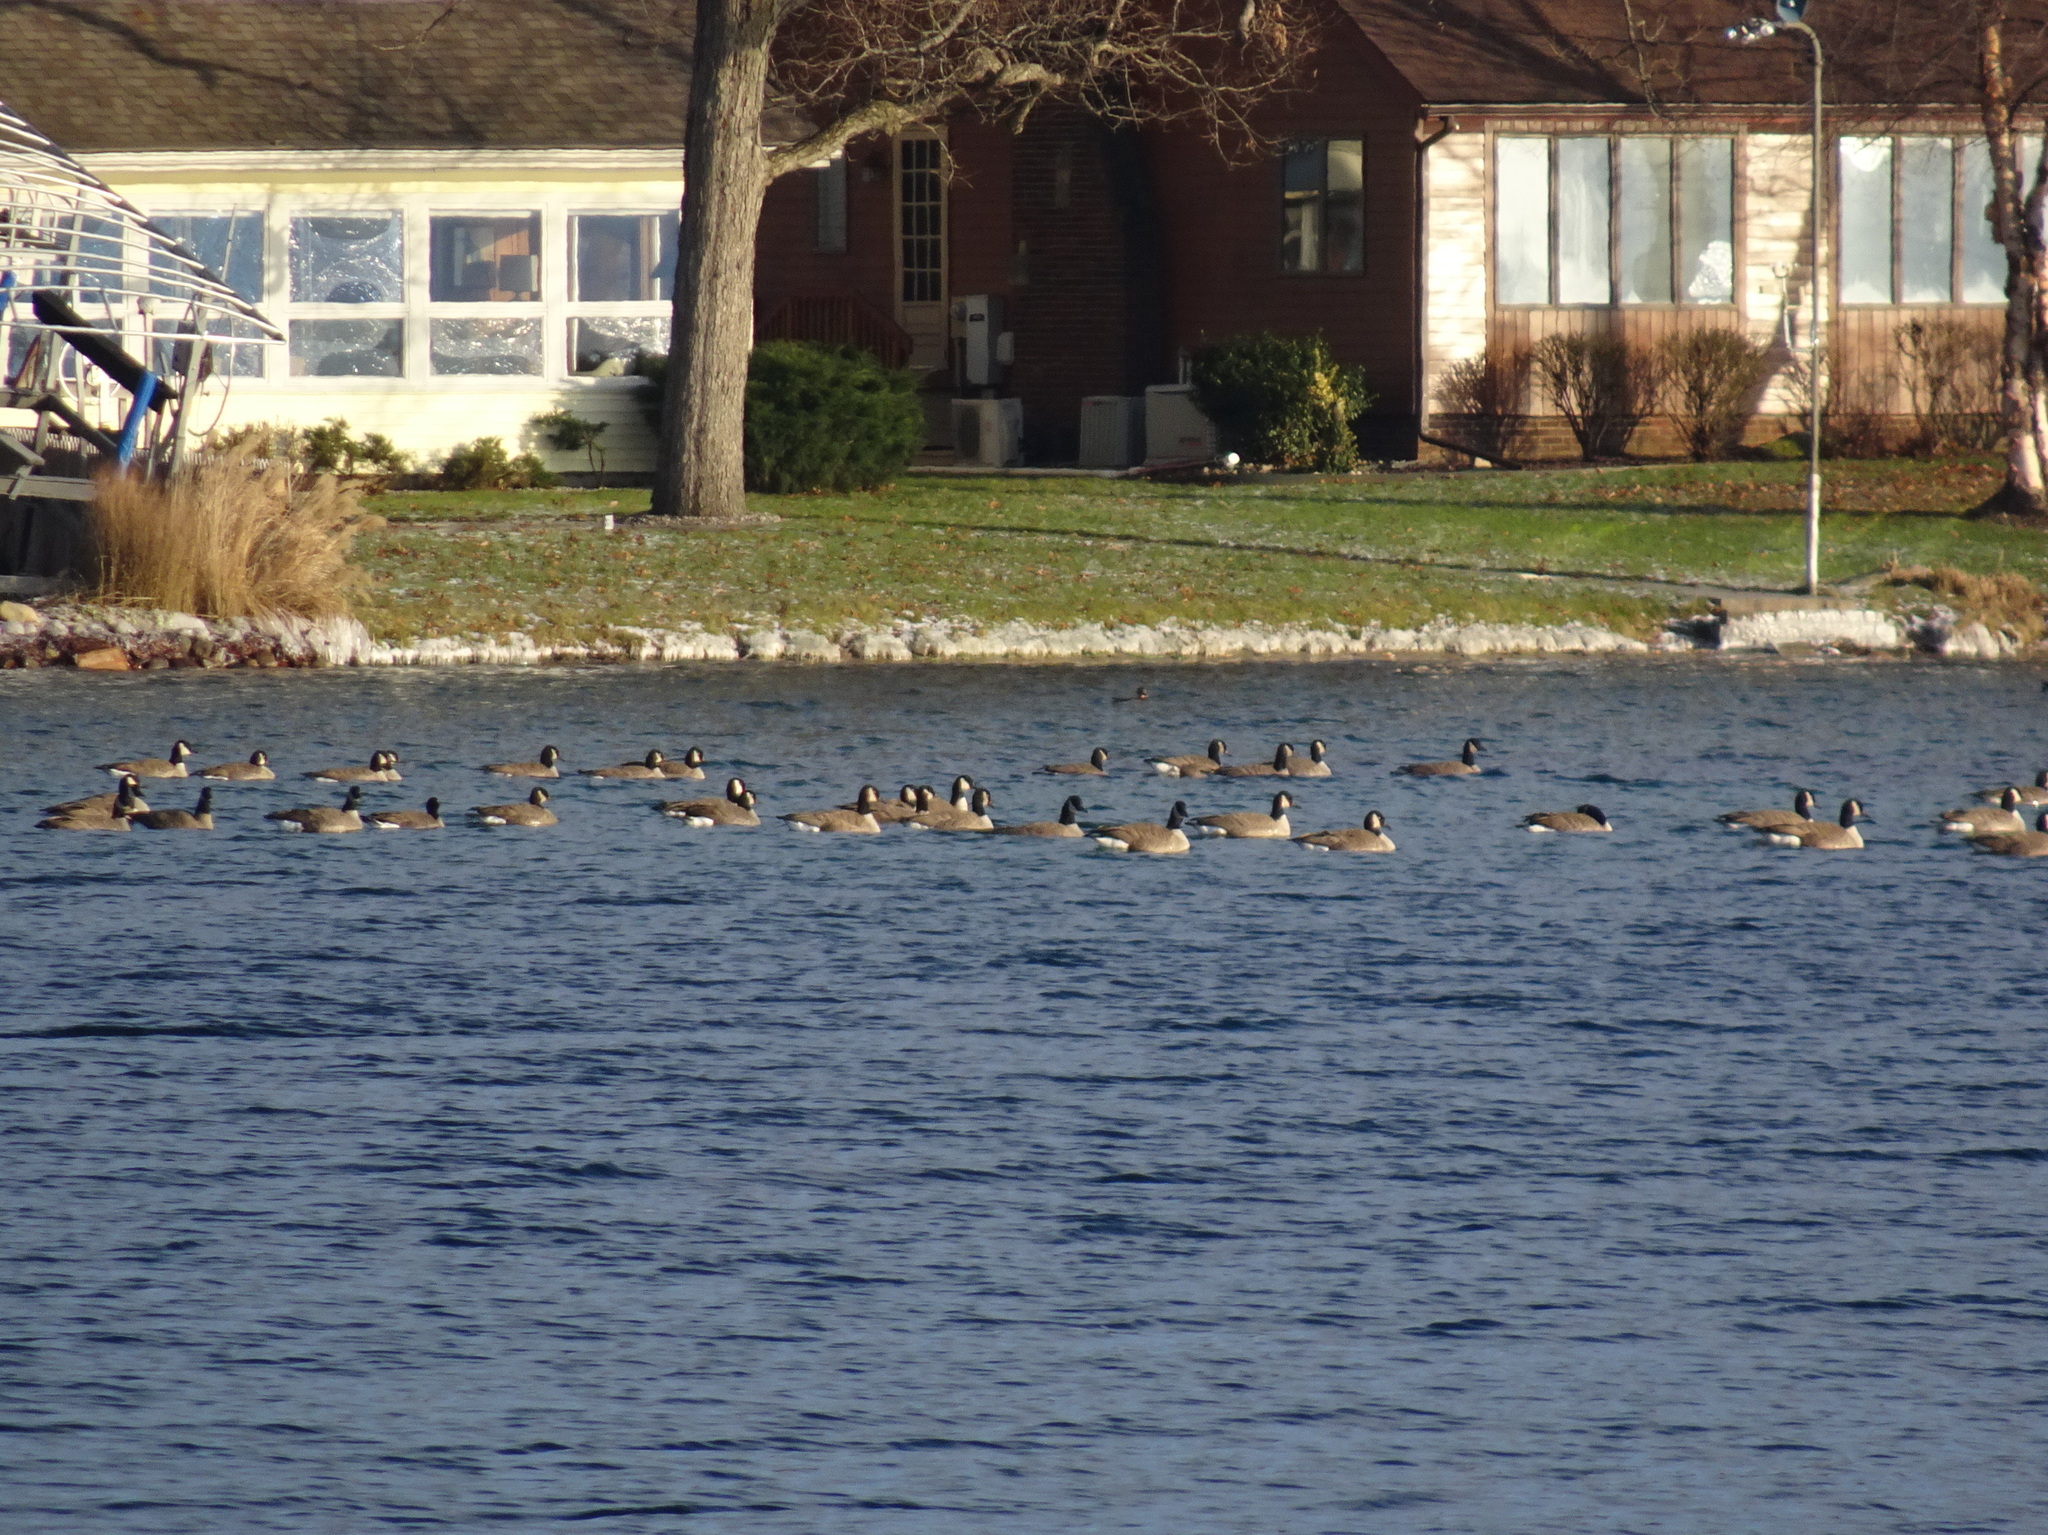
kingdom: Animalia
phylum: Chordata
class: Aves
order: Anseriformes
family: Anatidae
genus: Branta
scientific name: Branta canadensis
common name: Canada goose
